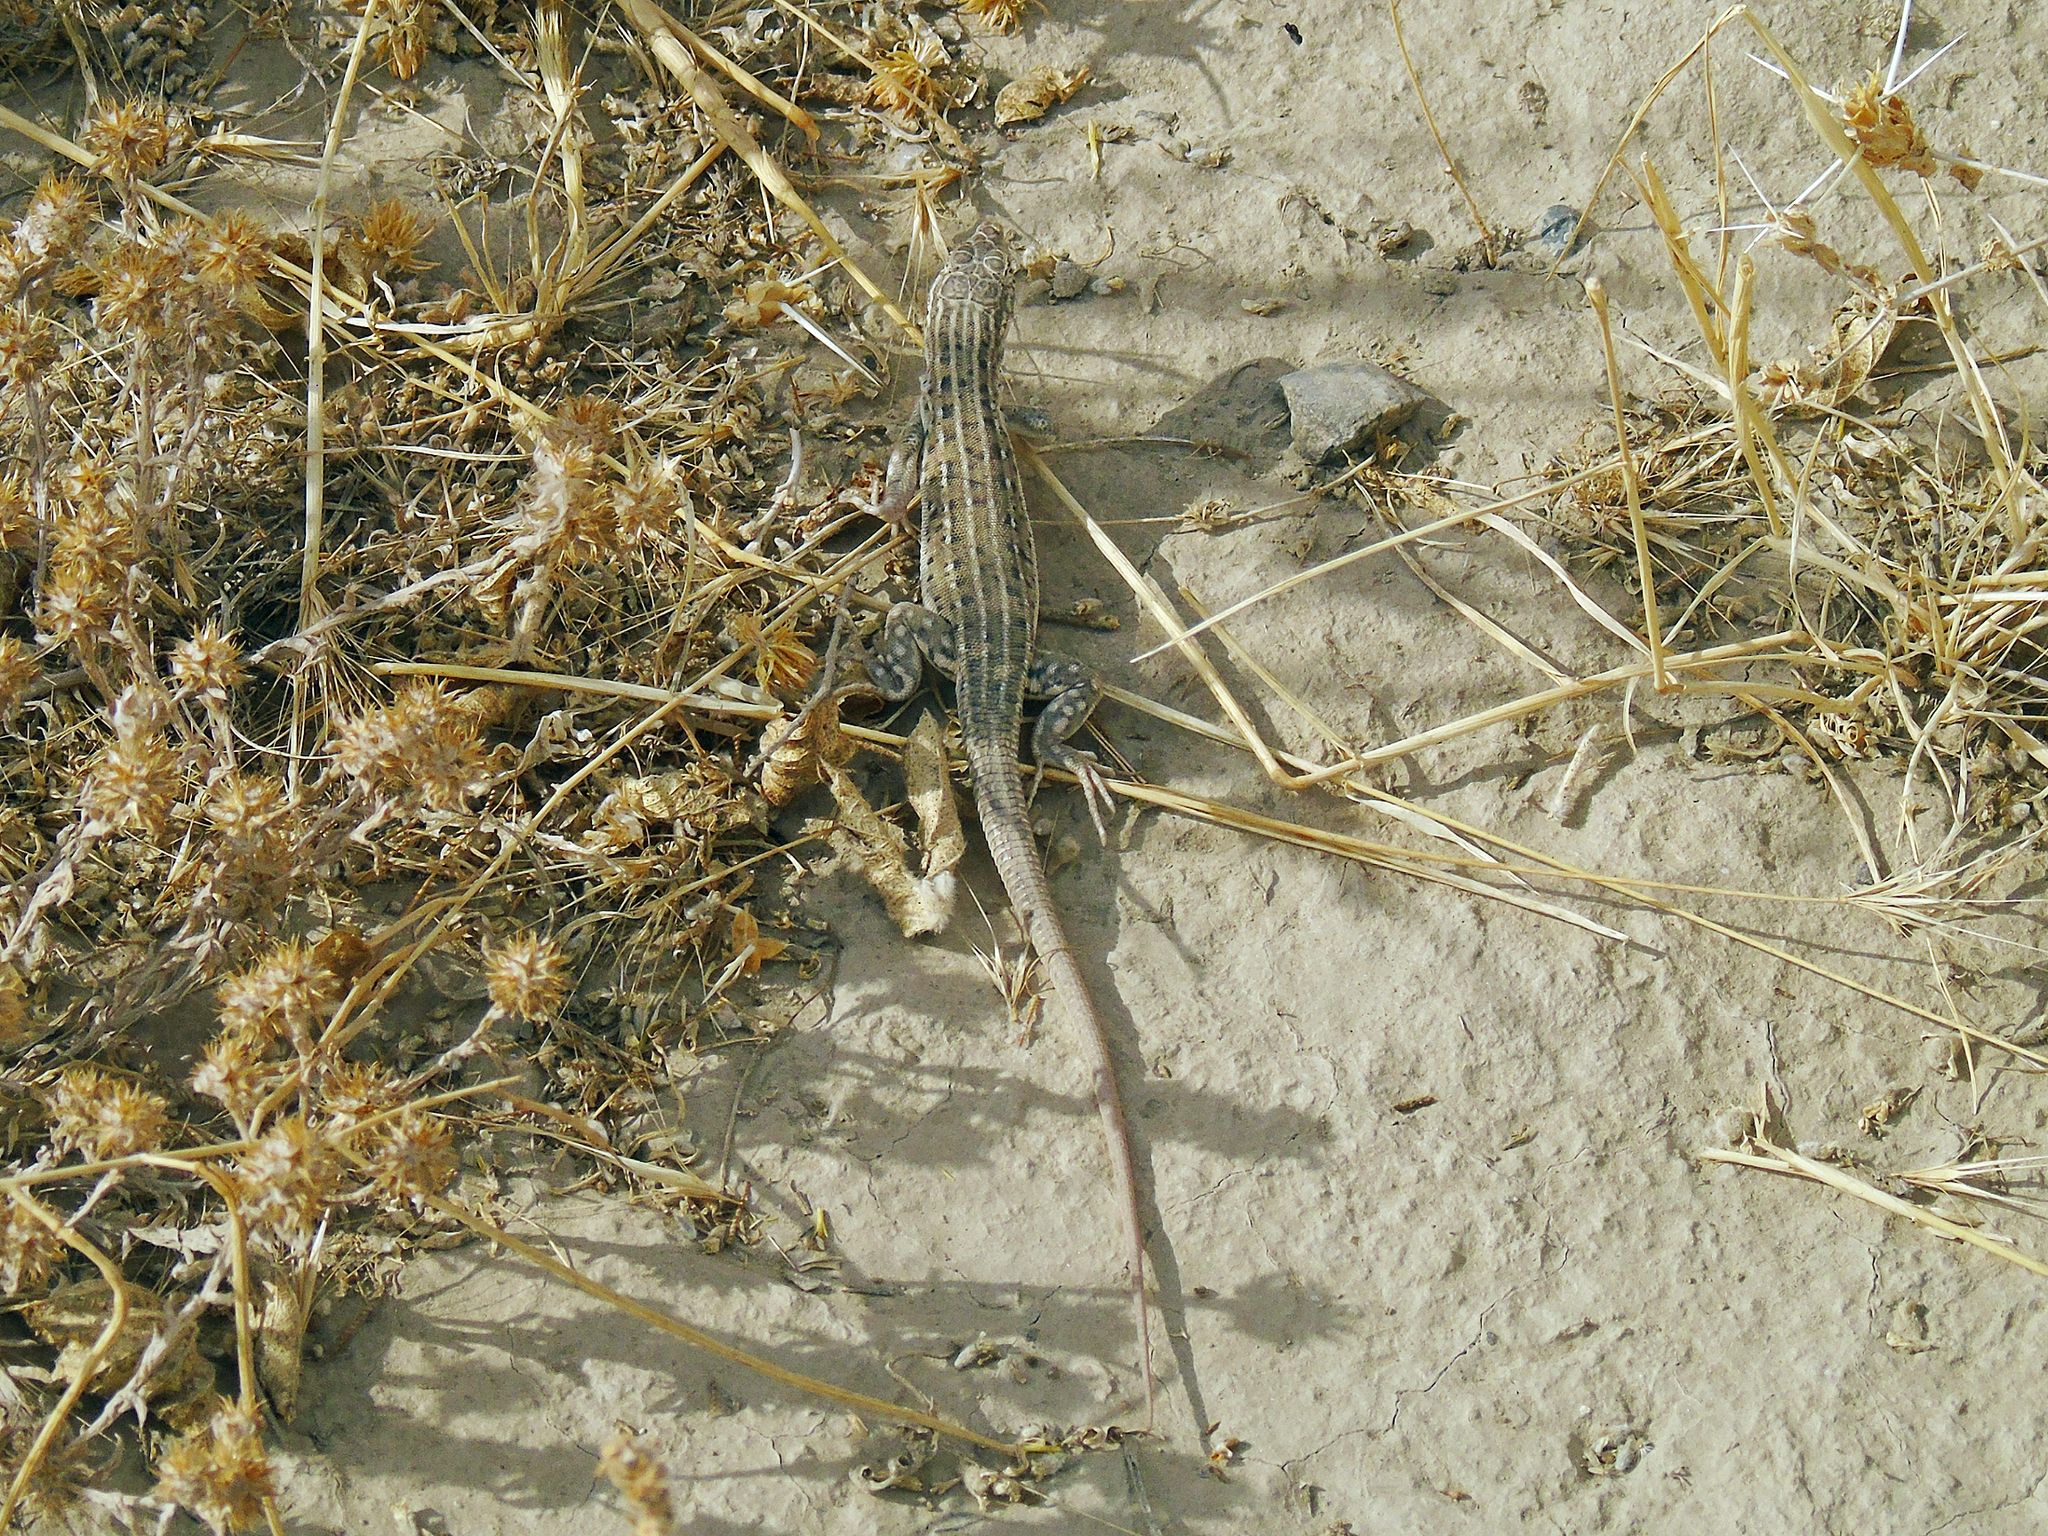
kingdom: Animalia
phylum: Chordata
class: Squamata
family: Lacertidae
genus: Eremias
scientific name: Eremias velox
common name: Central asian racerunner
